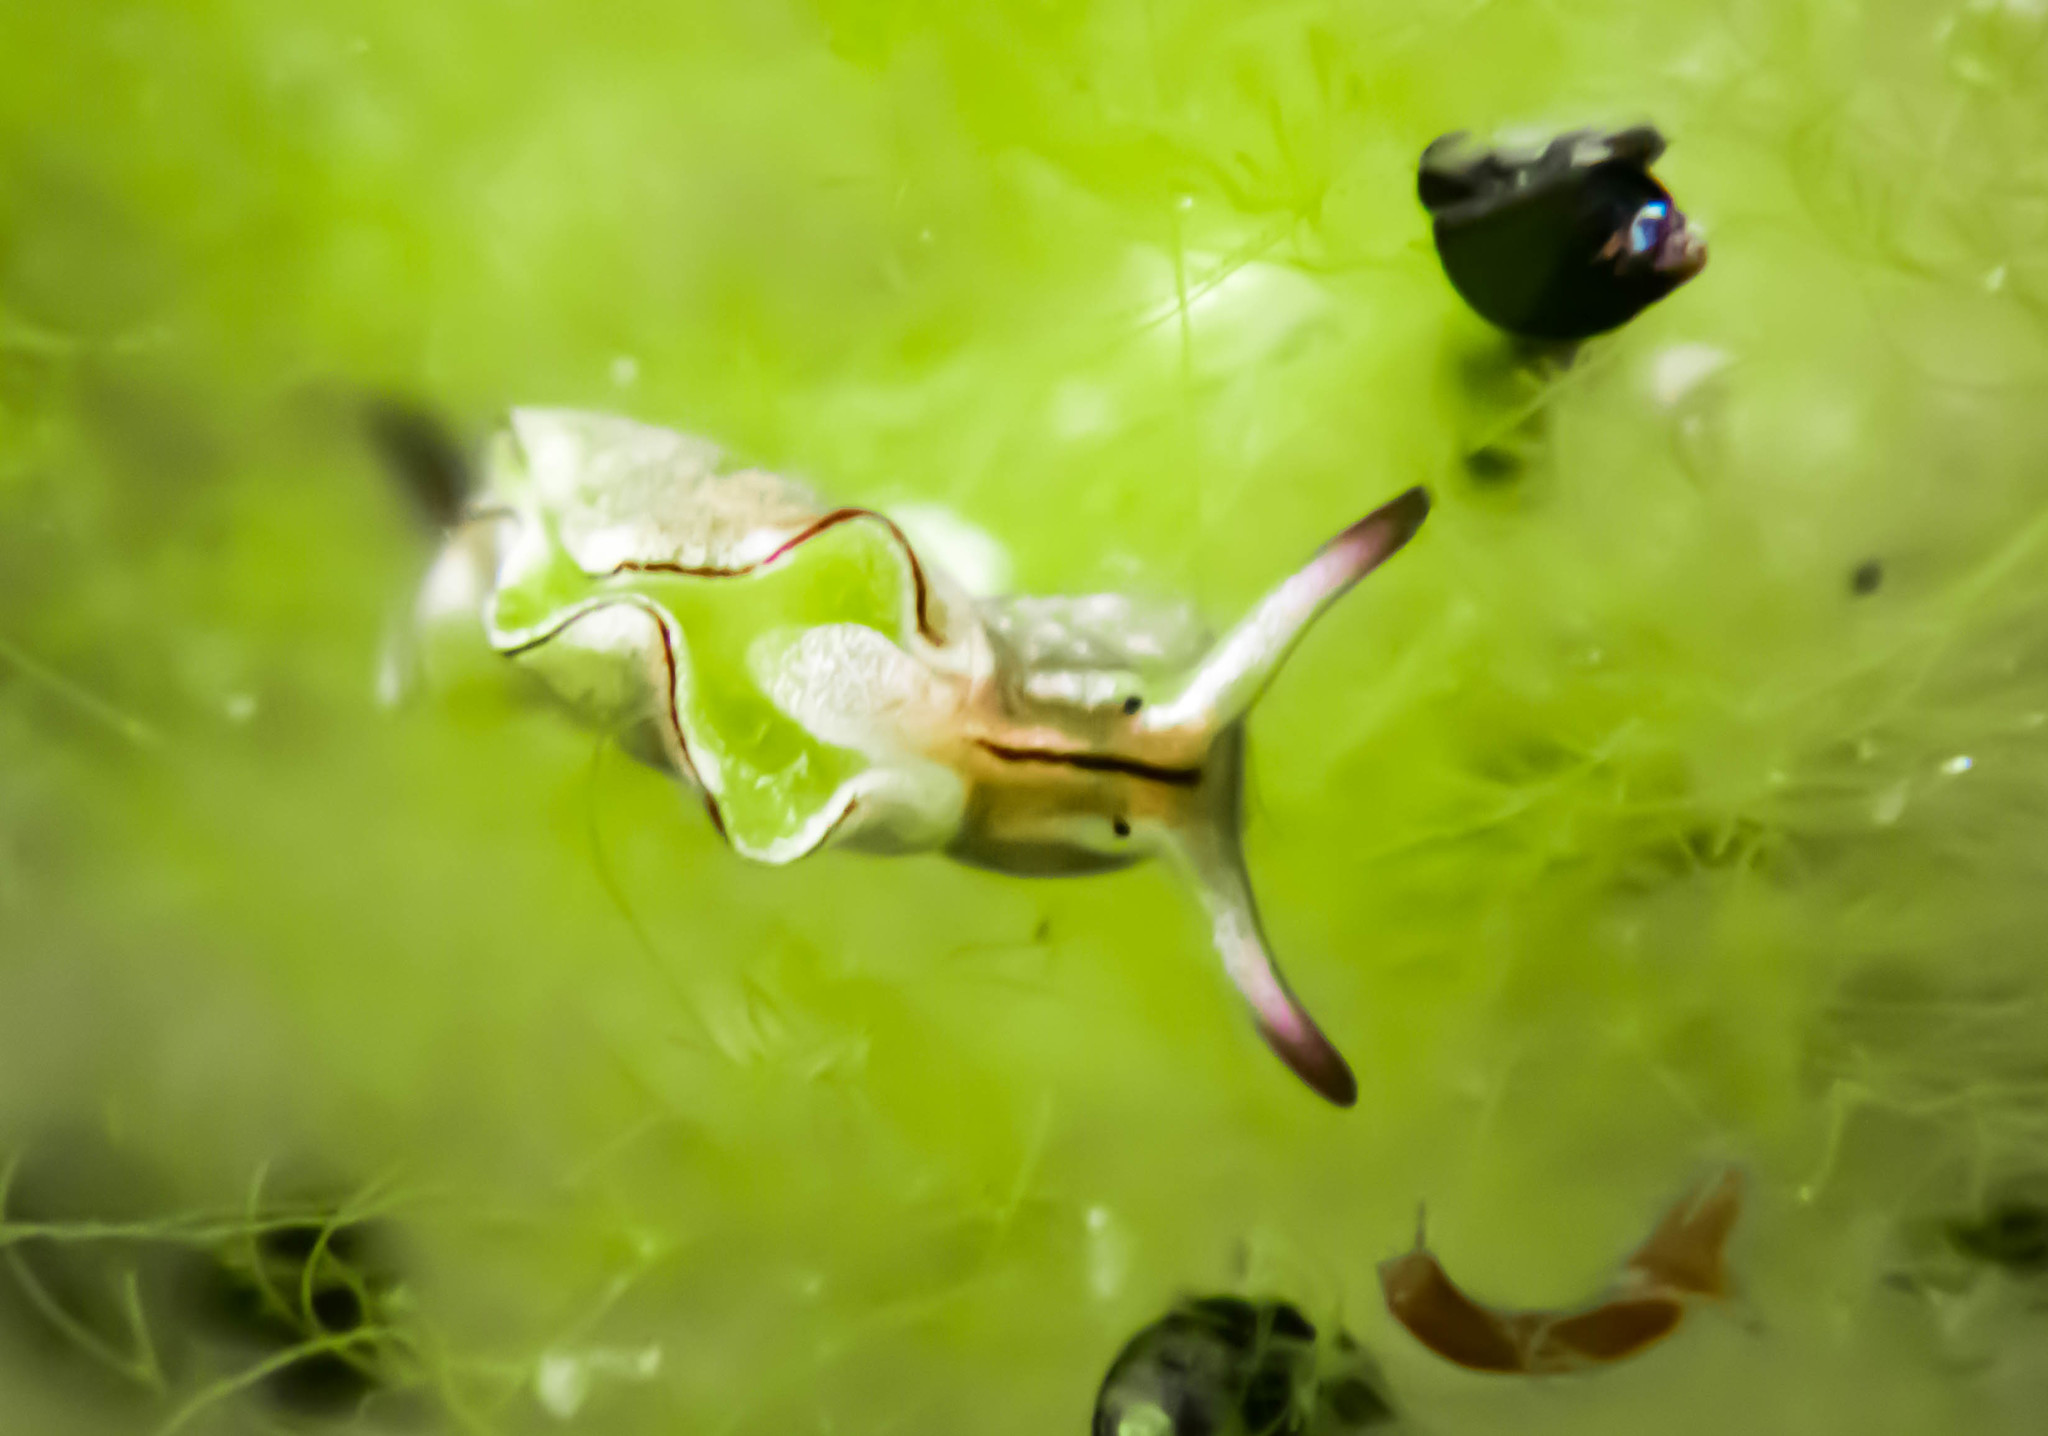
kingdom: Animalia
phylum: Mollusca
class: Gastropoda
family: Plakobranchidae
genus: Elysia
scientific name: Elysia coodgeensis
